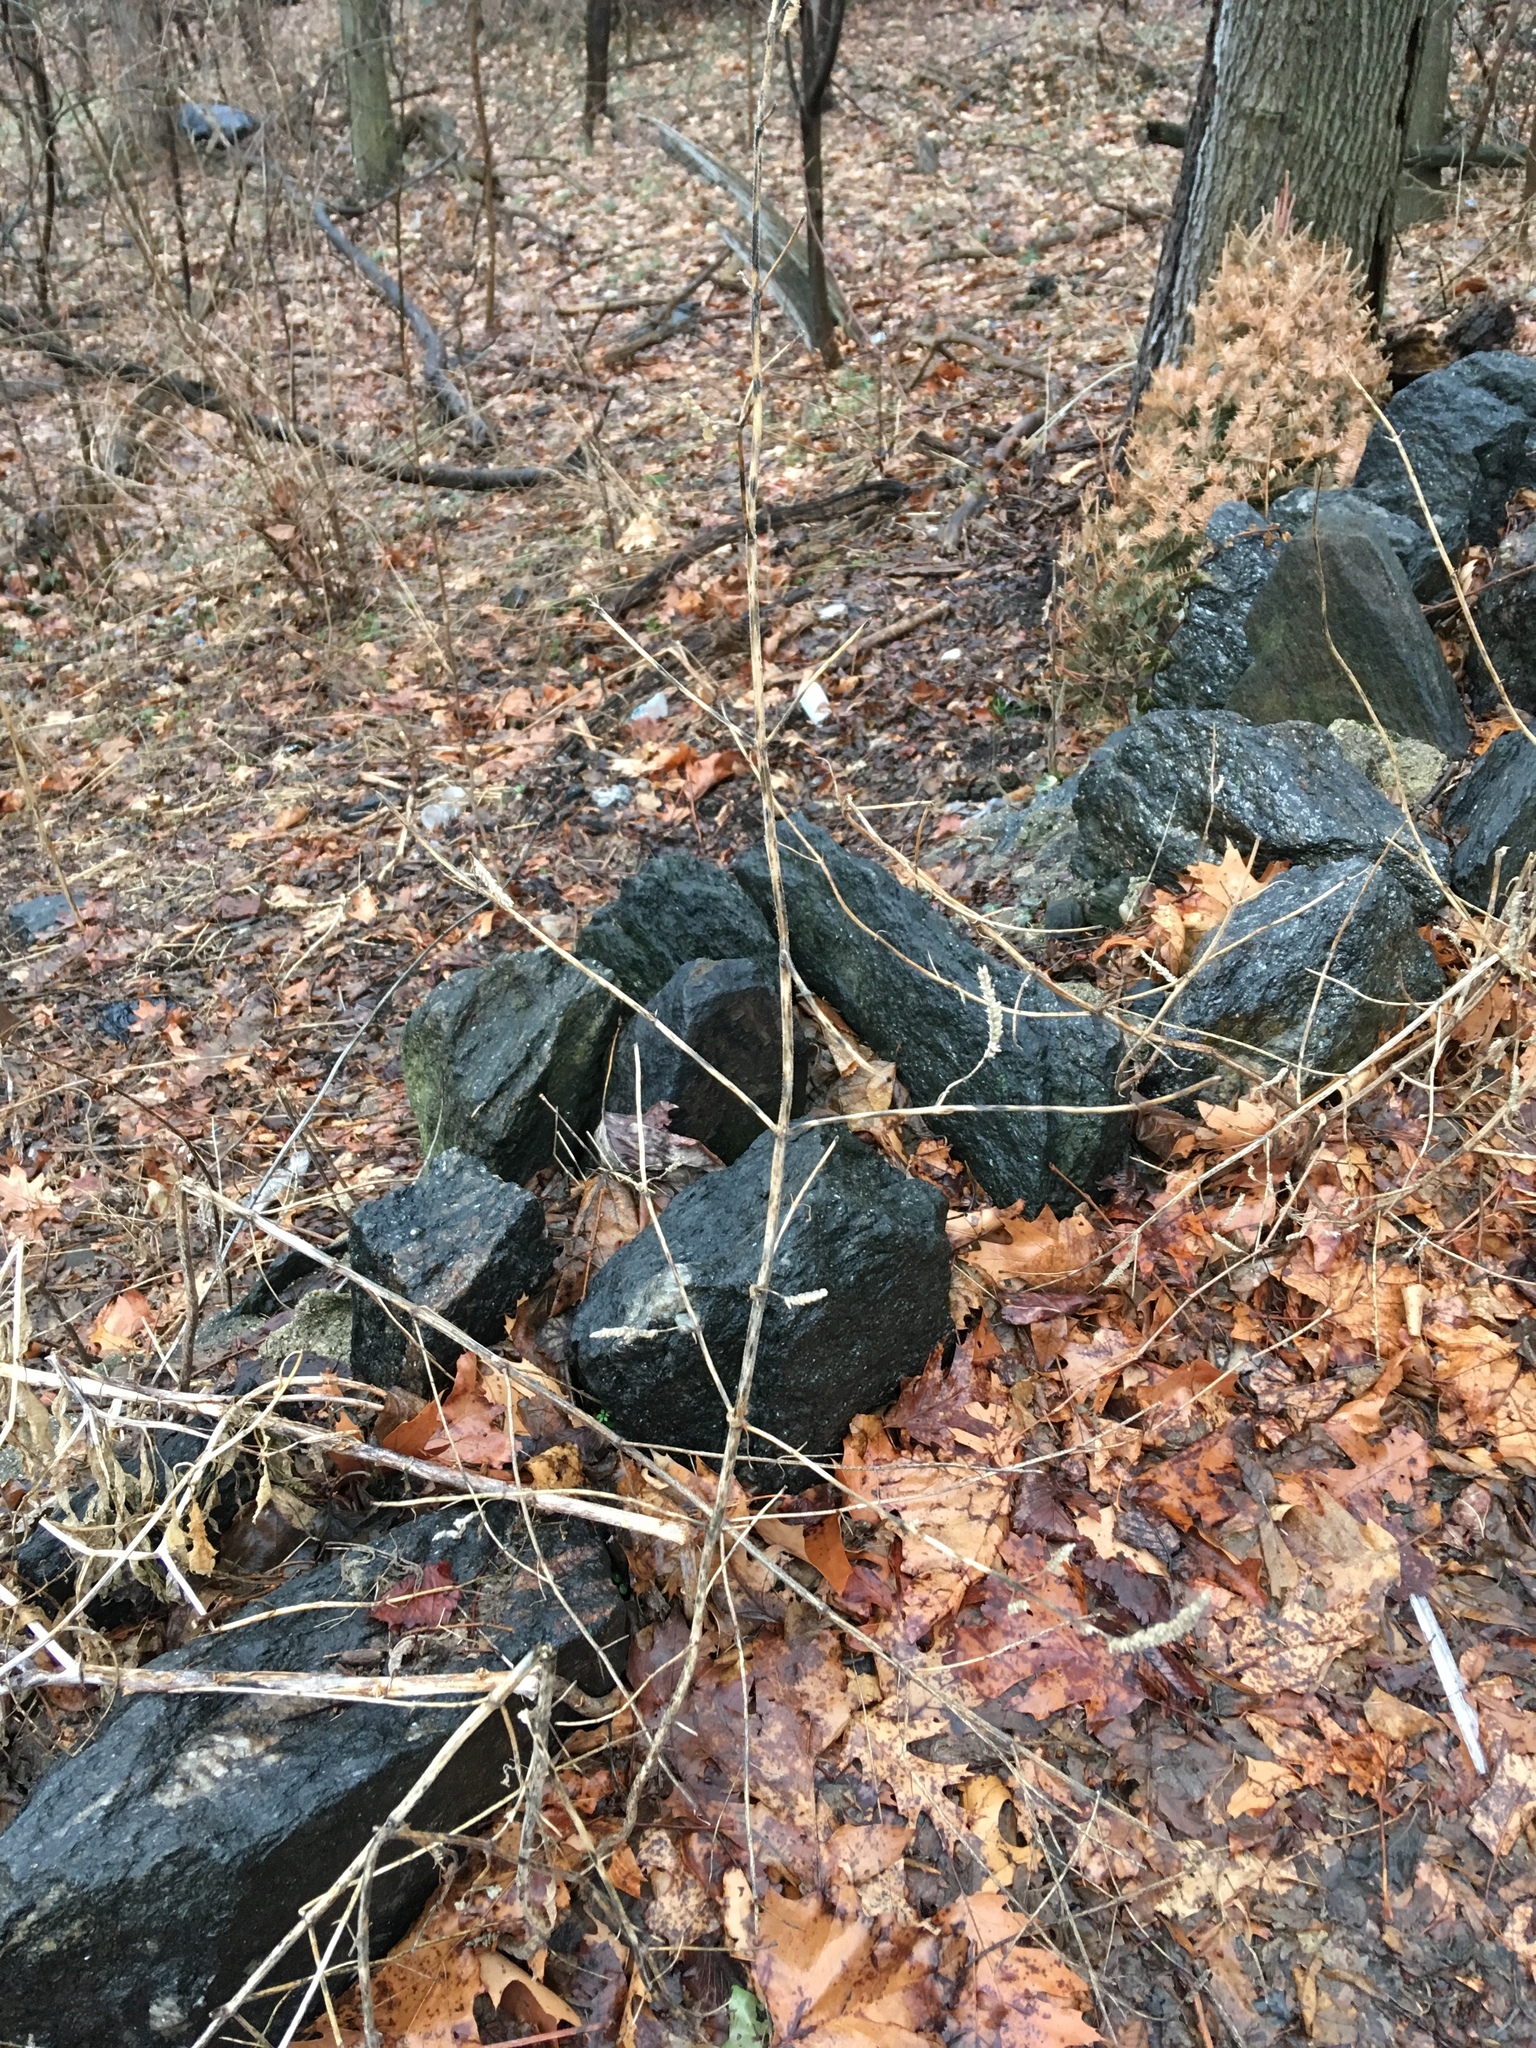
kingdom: Plantae
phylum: Tracheophyta
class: Magnoliopsida
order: Lamiales
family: Lamiaceae
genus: Elsholtzia
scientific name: Elsholtzia ciliata
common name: Ciliate elsholtzia
